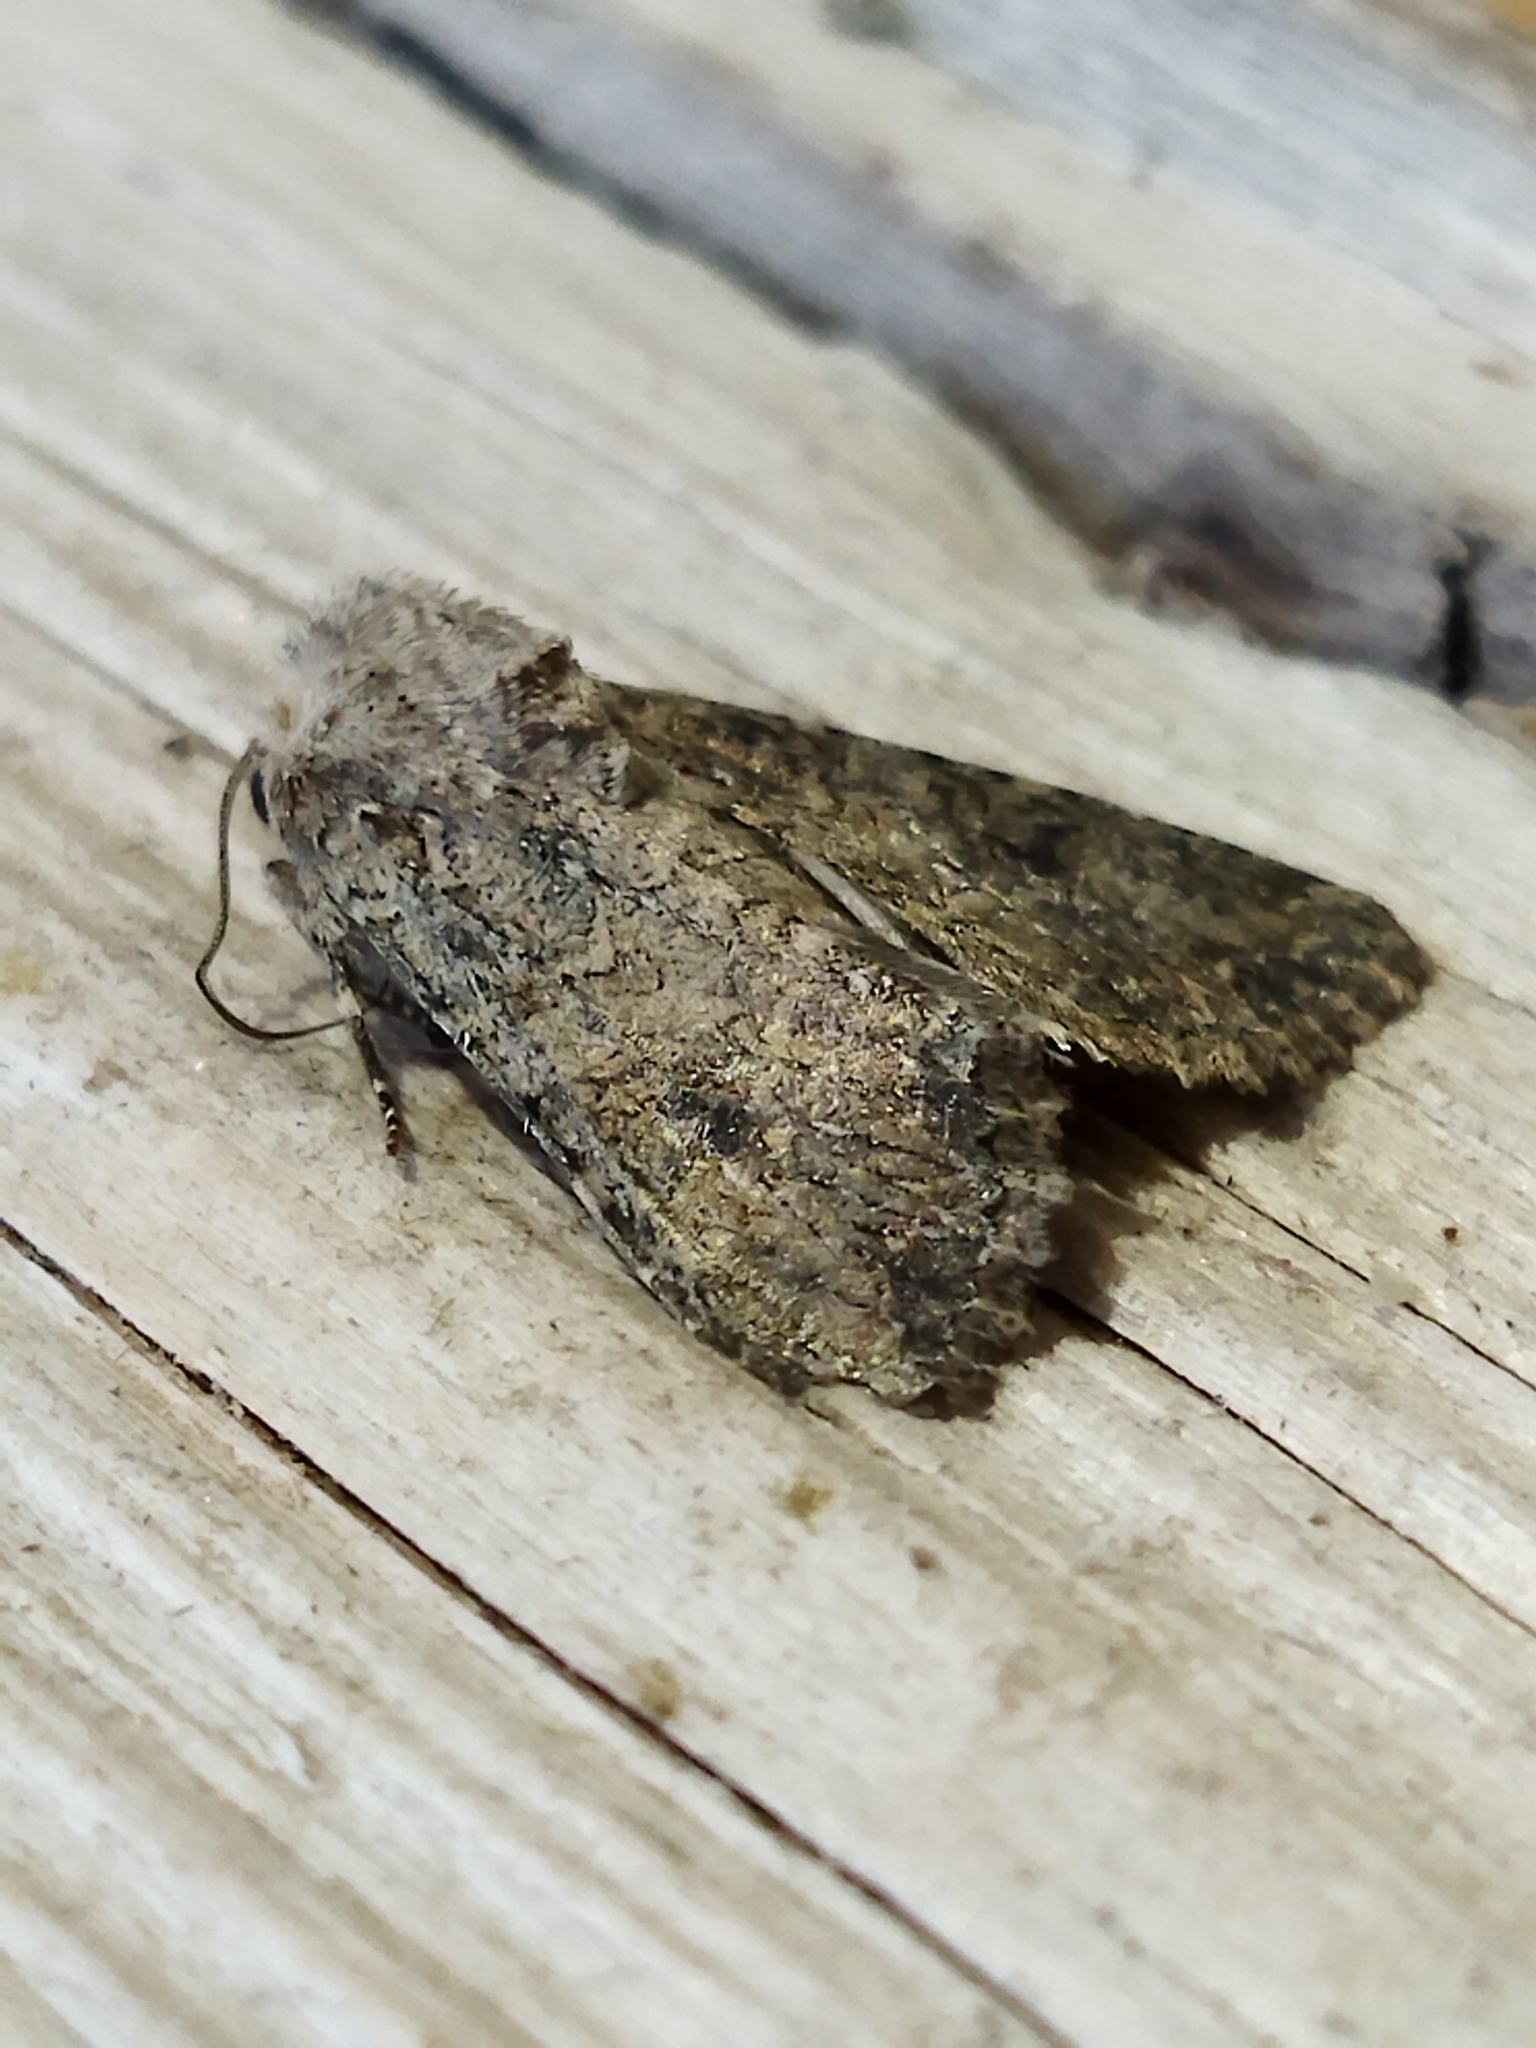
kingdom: Animalia
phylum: Arthropoda
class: Insecta
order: Lepidoptera
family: Noctuidae
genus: Anarta
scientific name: Anarta trifolii
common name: Clover cutworm moth
